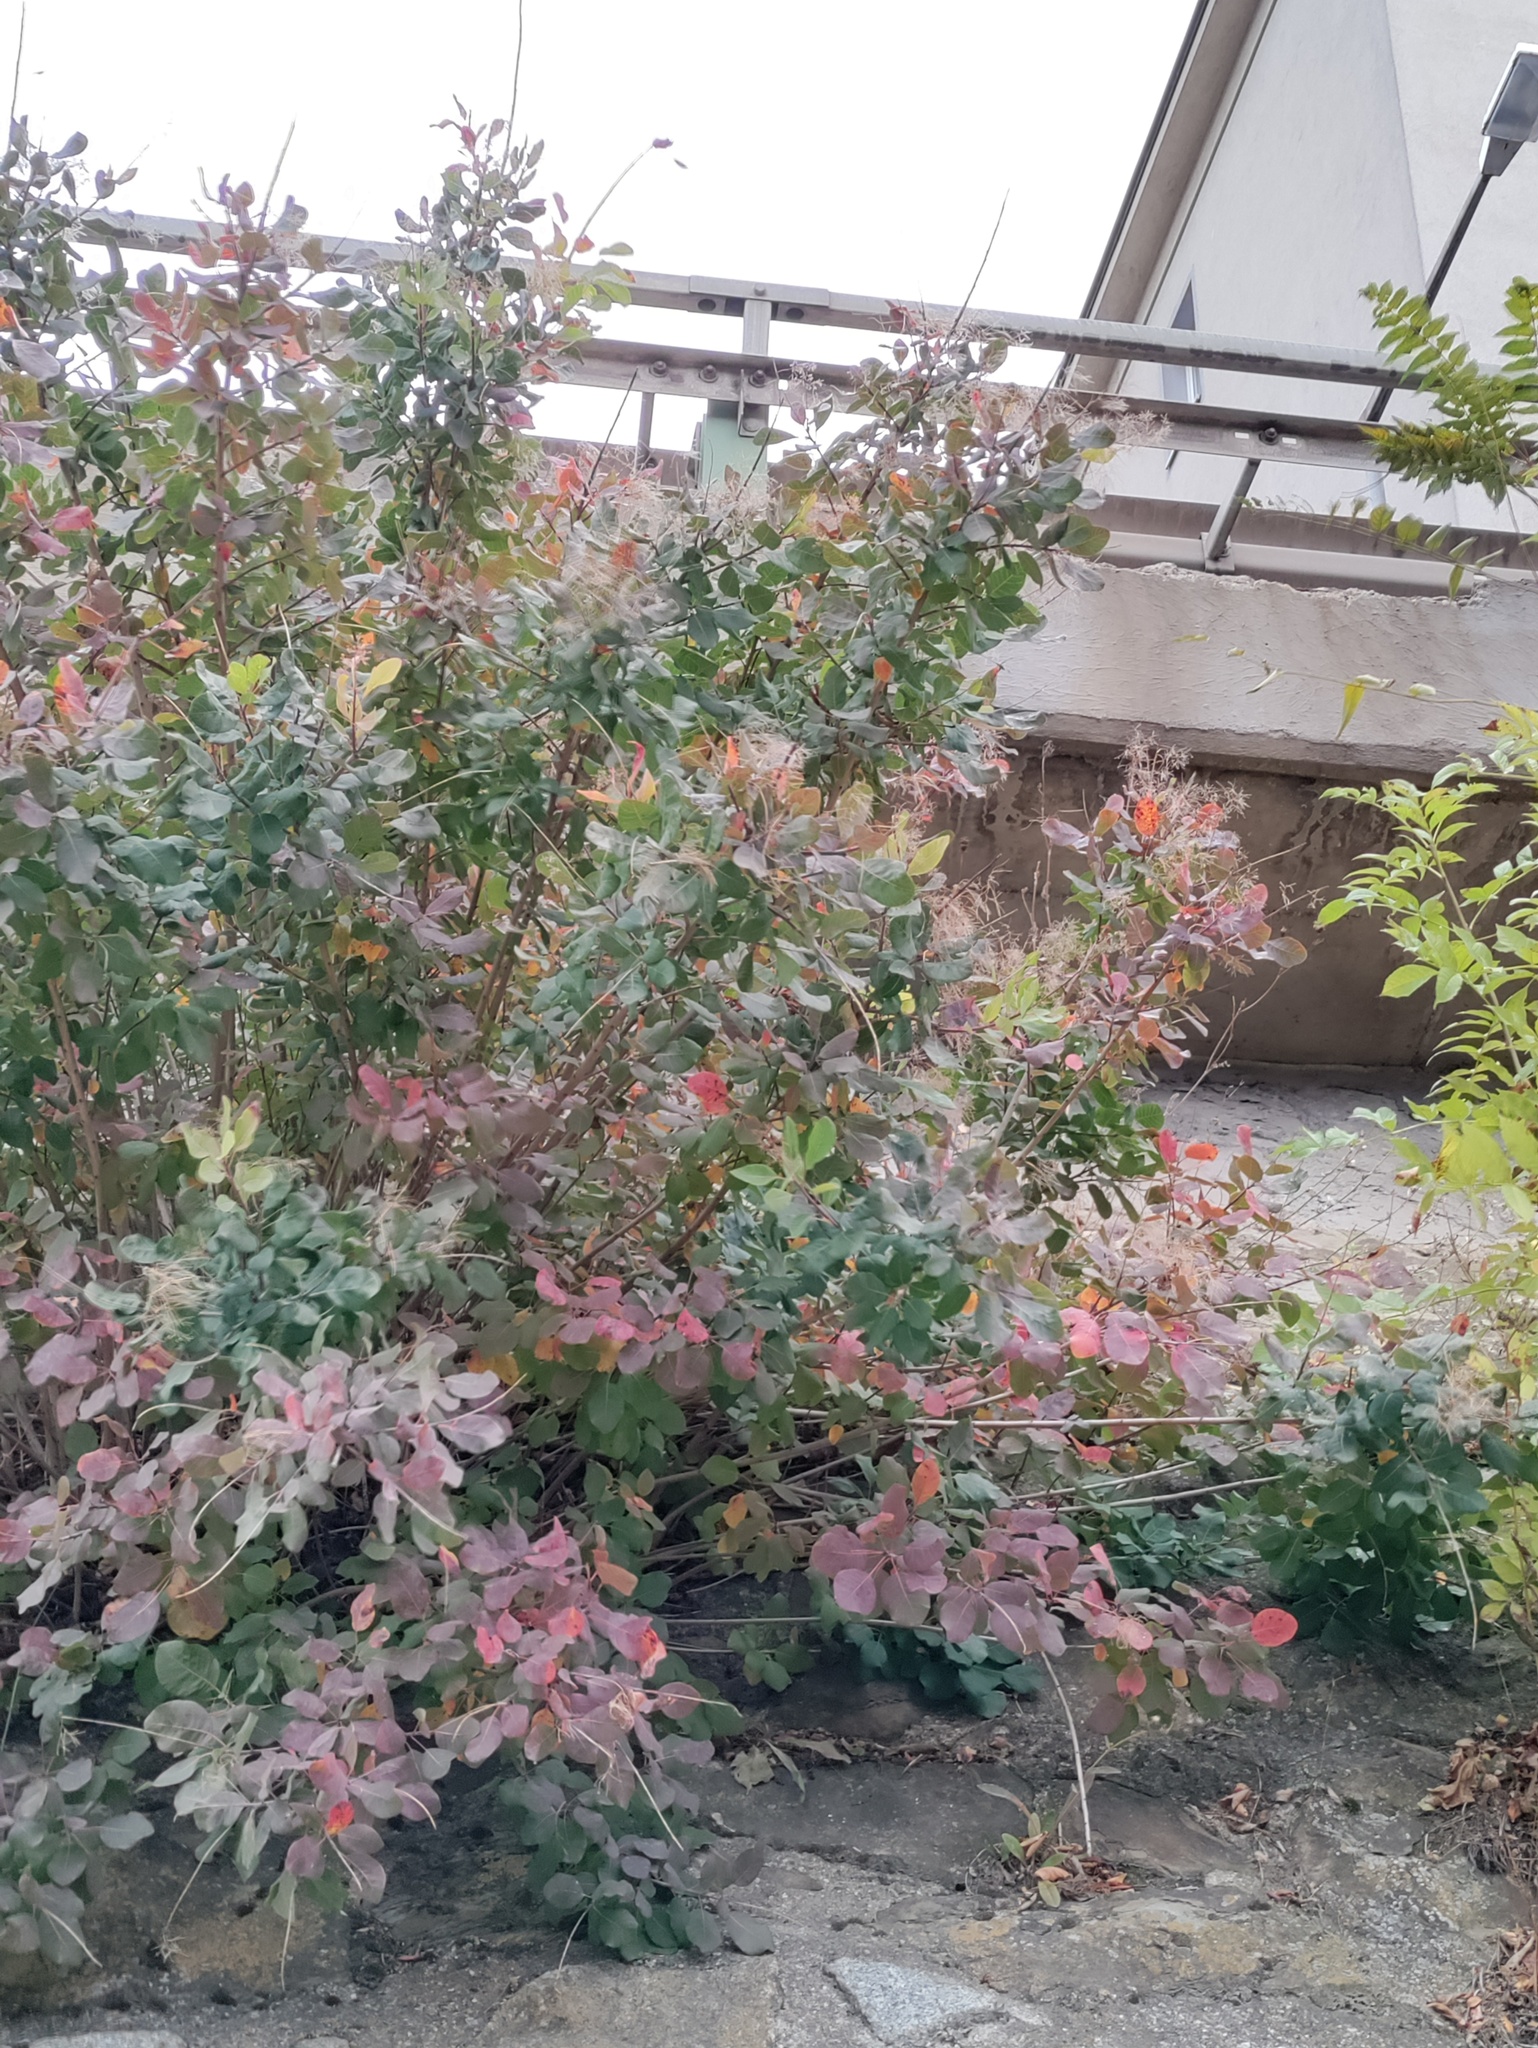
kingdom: Plantae
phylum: Tracheophyta
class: Magnoliopsida
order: Sapindales
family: Anacardiaceae
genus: Cotinus
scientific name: Cotinus coggygria
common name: Smoke-tree
